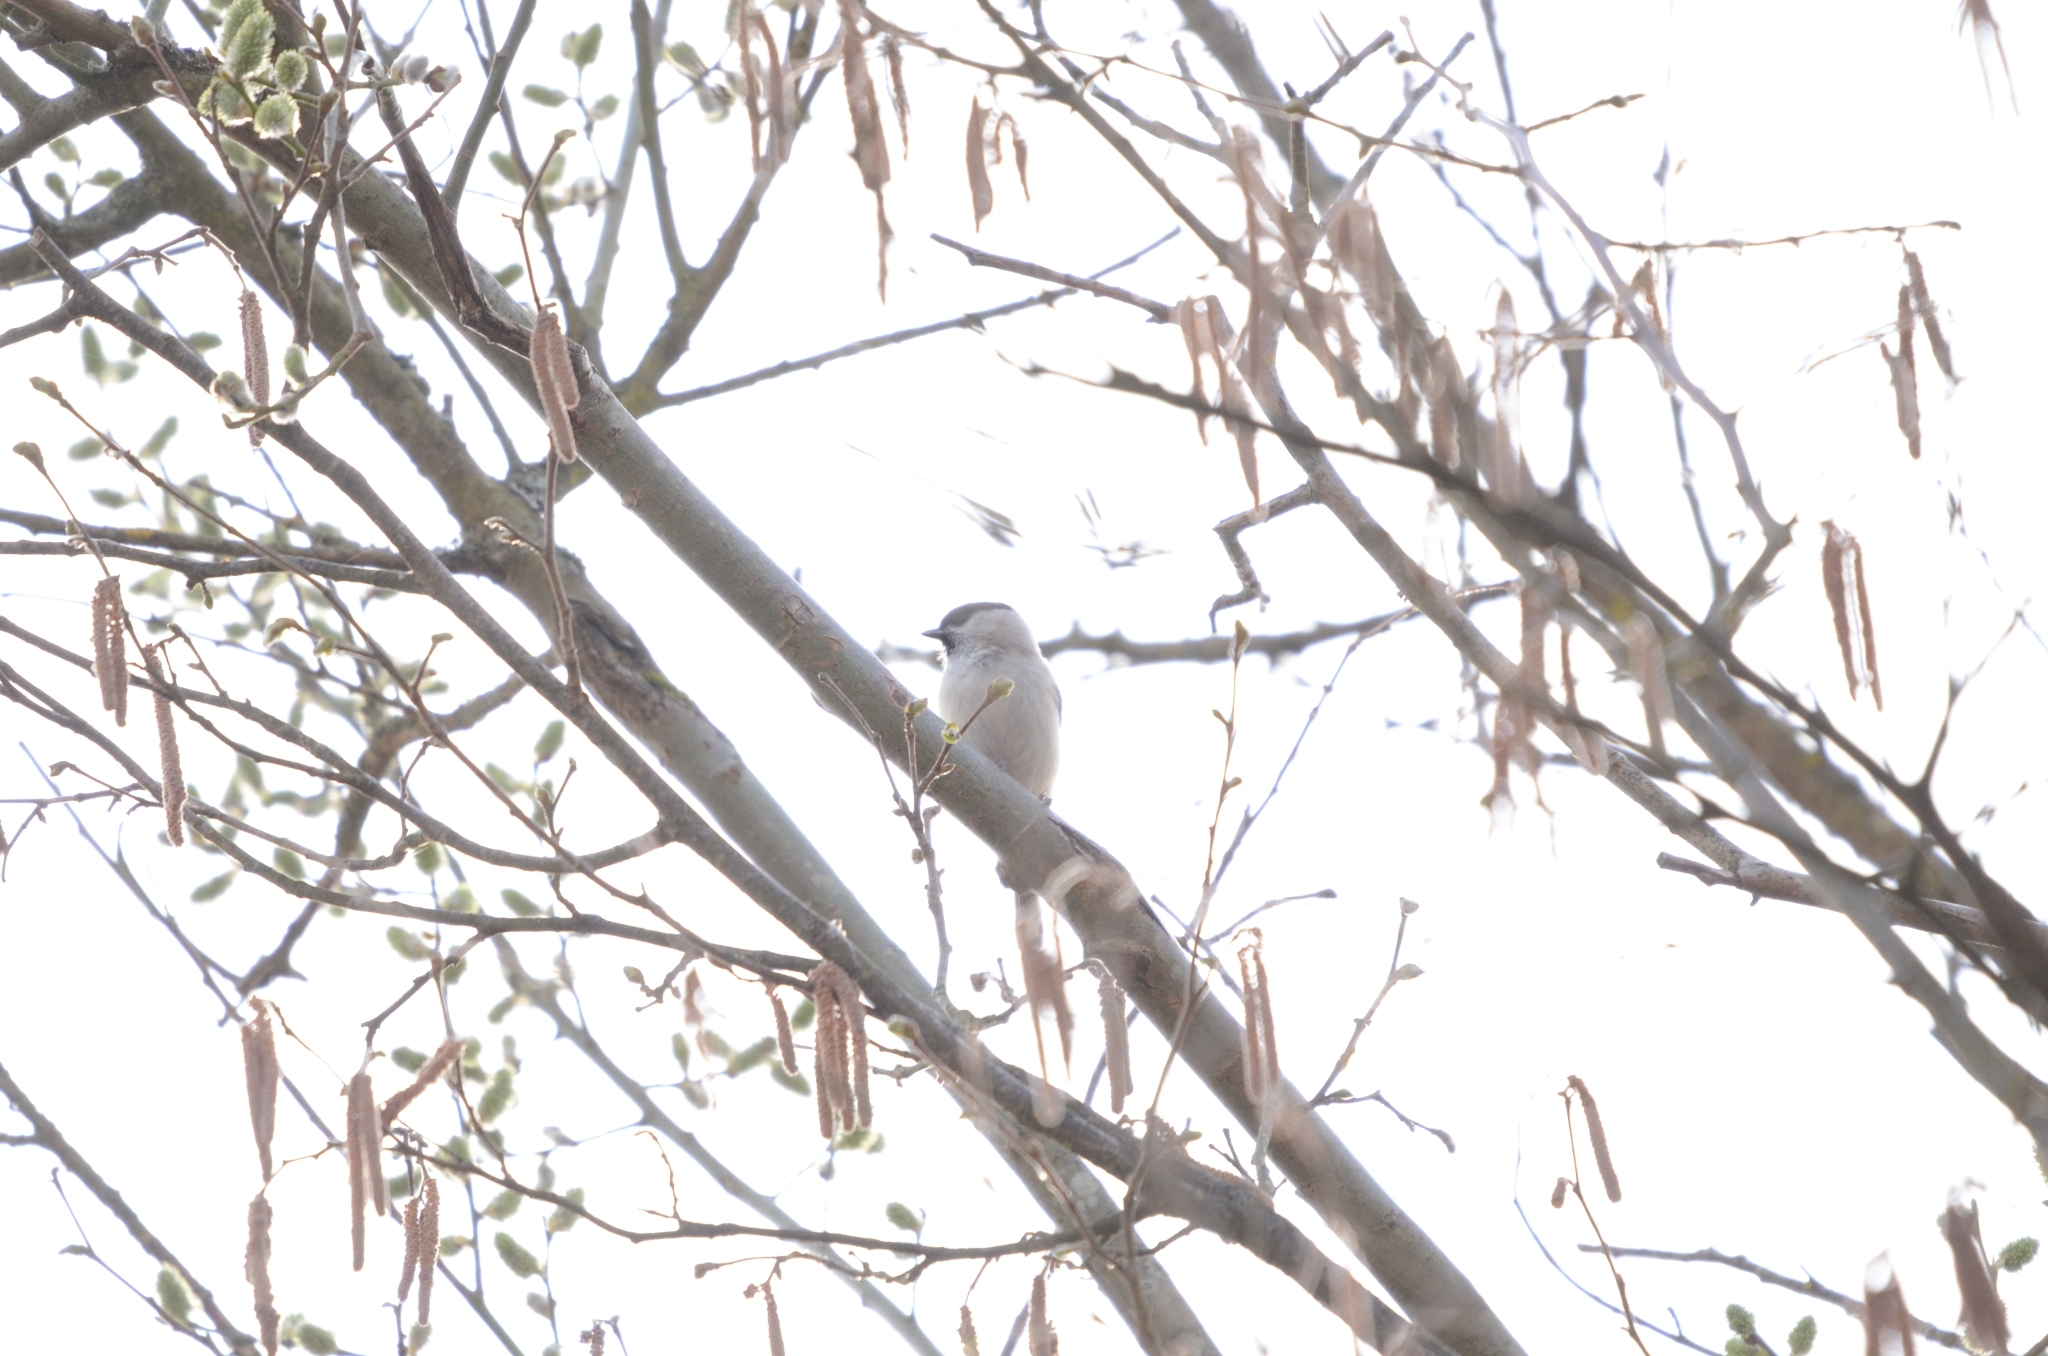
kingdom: Animalia
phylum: Chordata
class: Aves
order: Passeriformes
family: Paridae
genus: Poecile
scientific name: Poecile palustris
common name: Marsh tit
